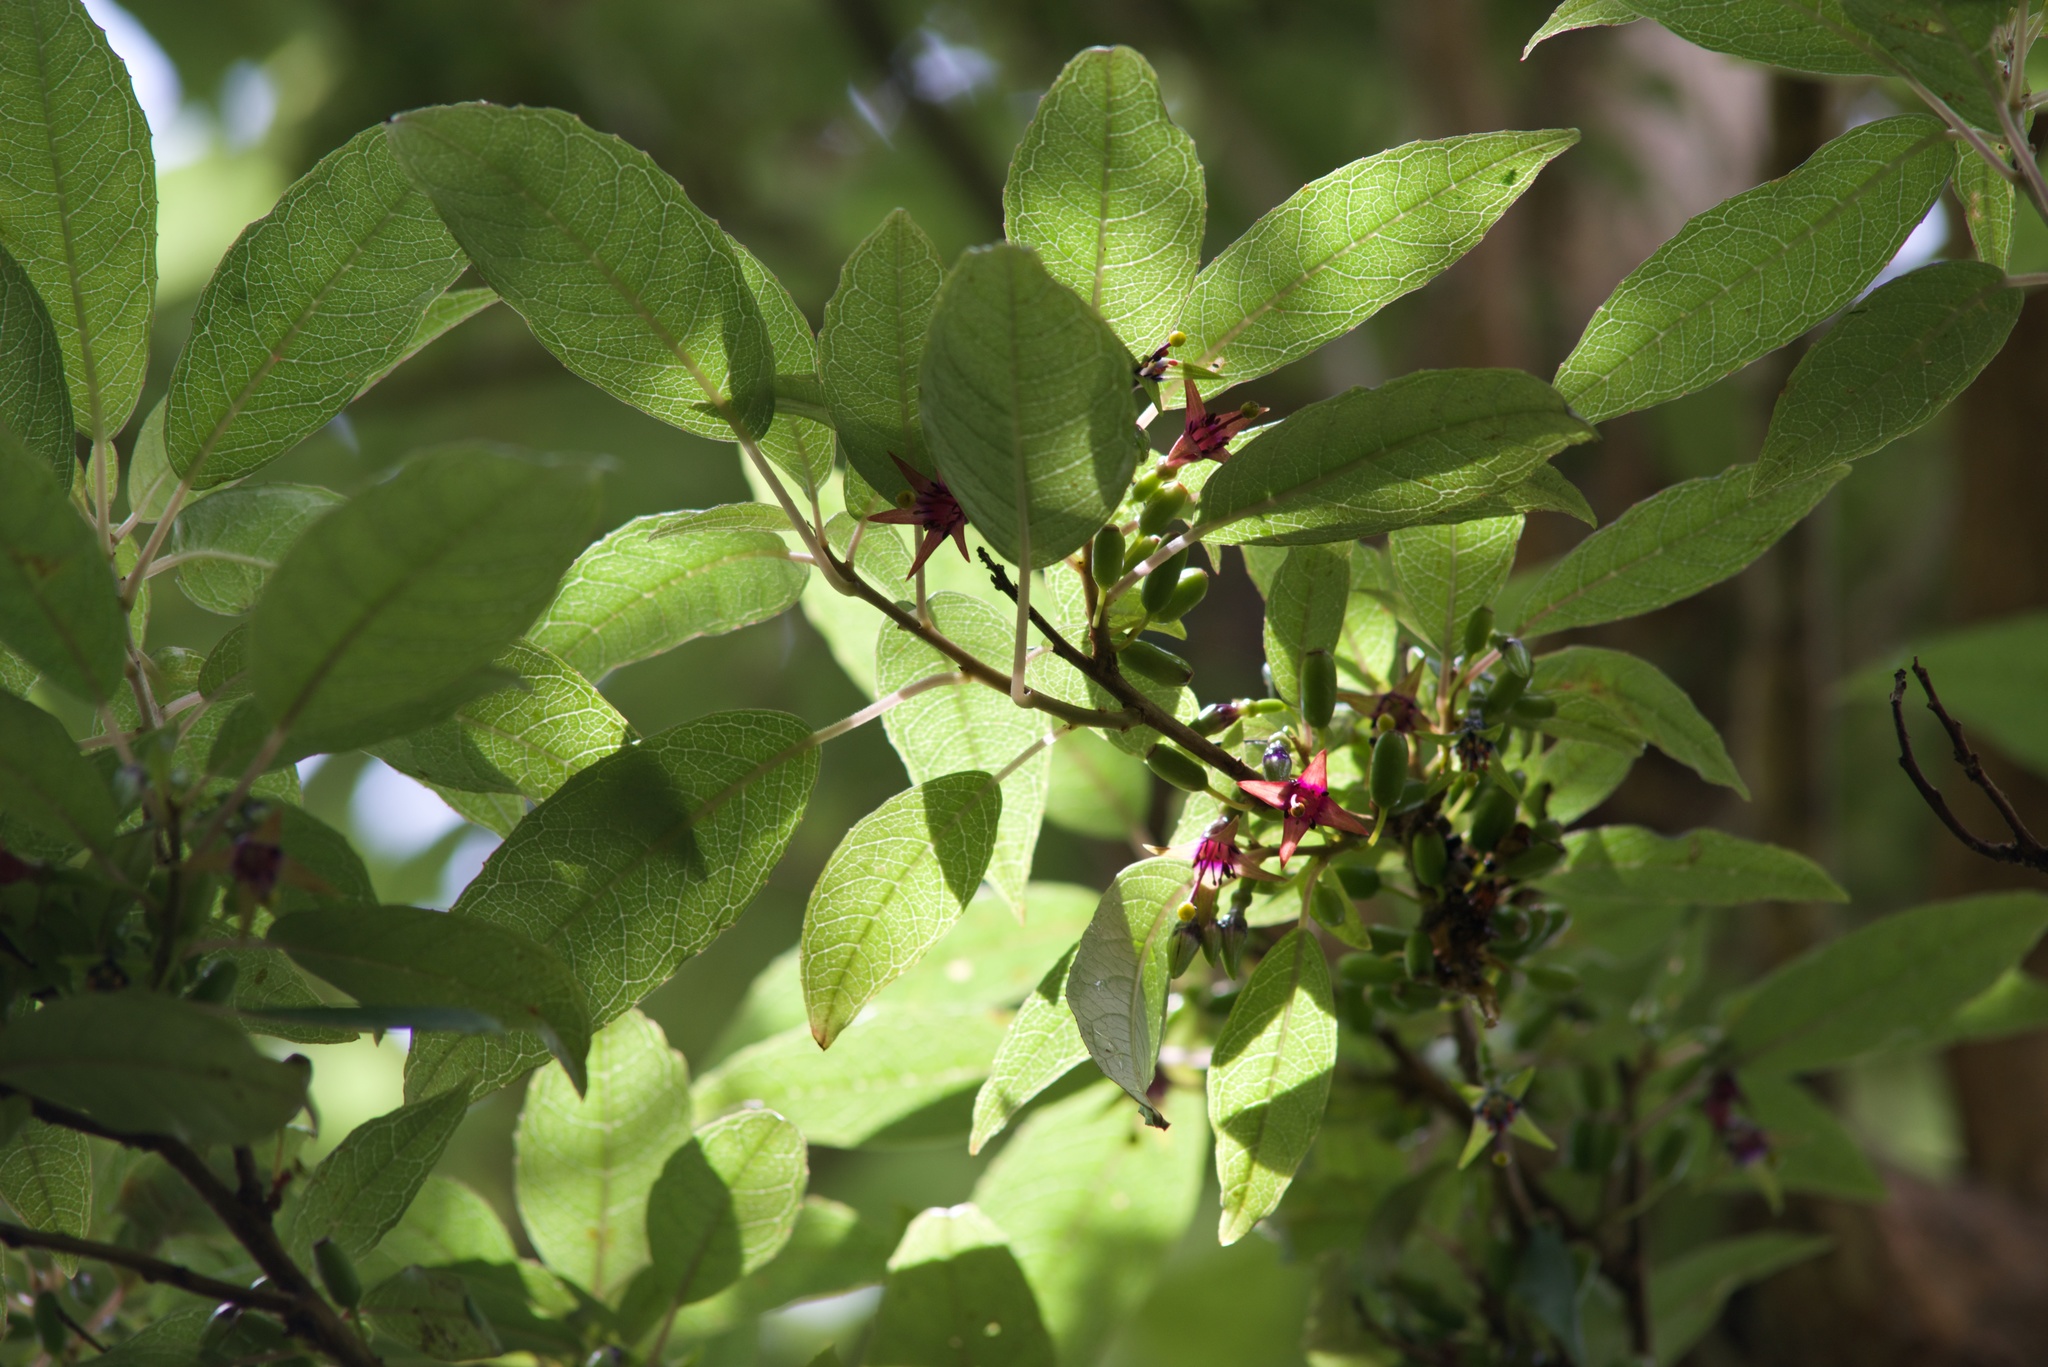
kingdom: Plantae
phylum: Tracheophyta
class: Magnoliopsida
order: Myrtales
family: Onagraceae
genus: Fuchsia
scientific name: Fuchsia excorticata
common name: Tree fuchsia
